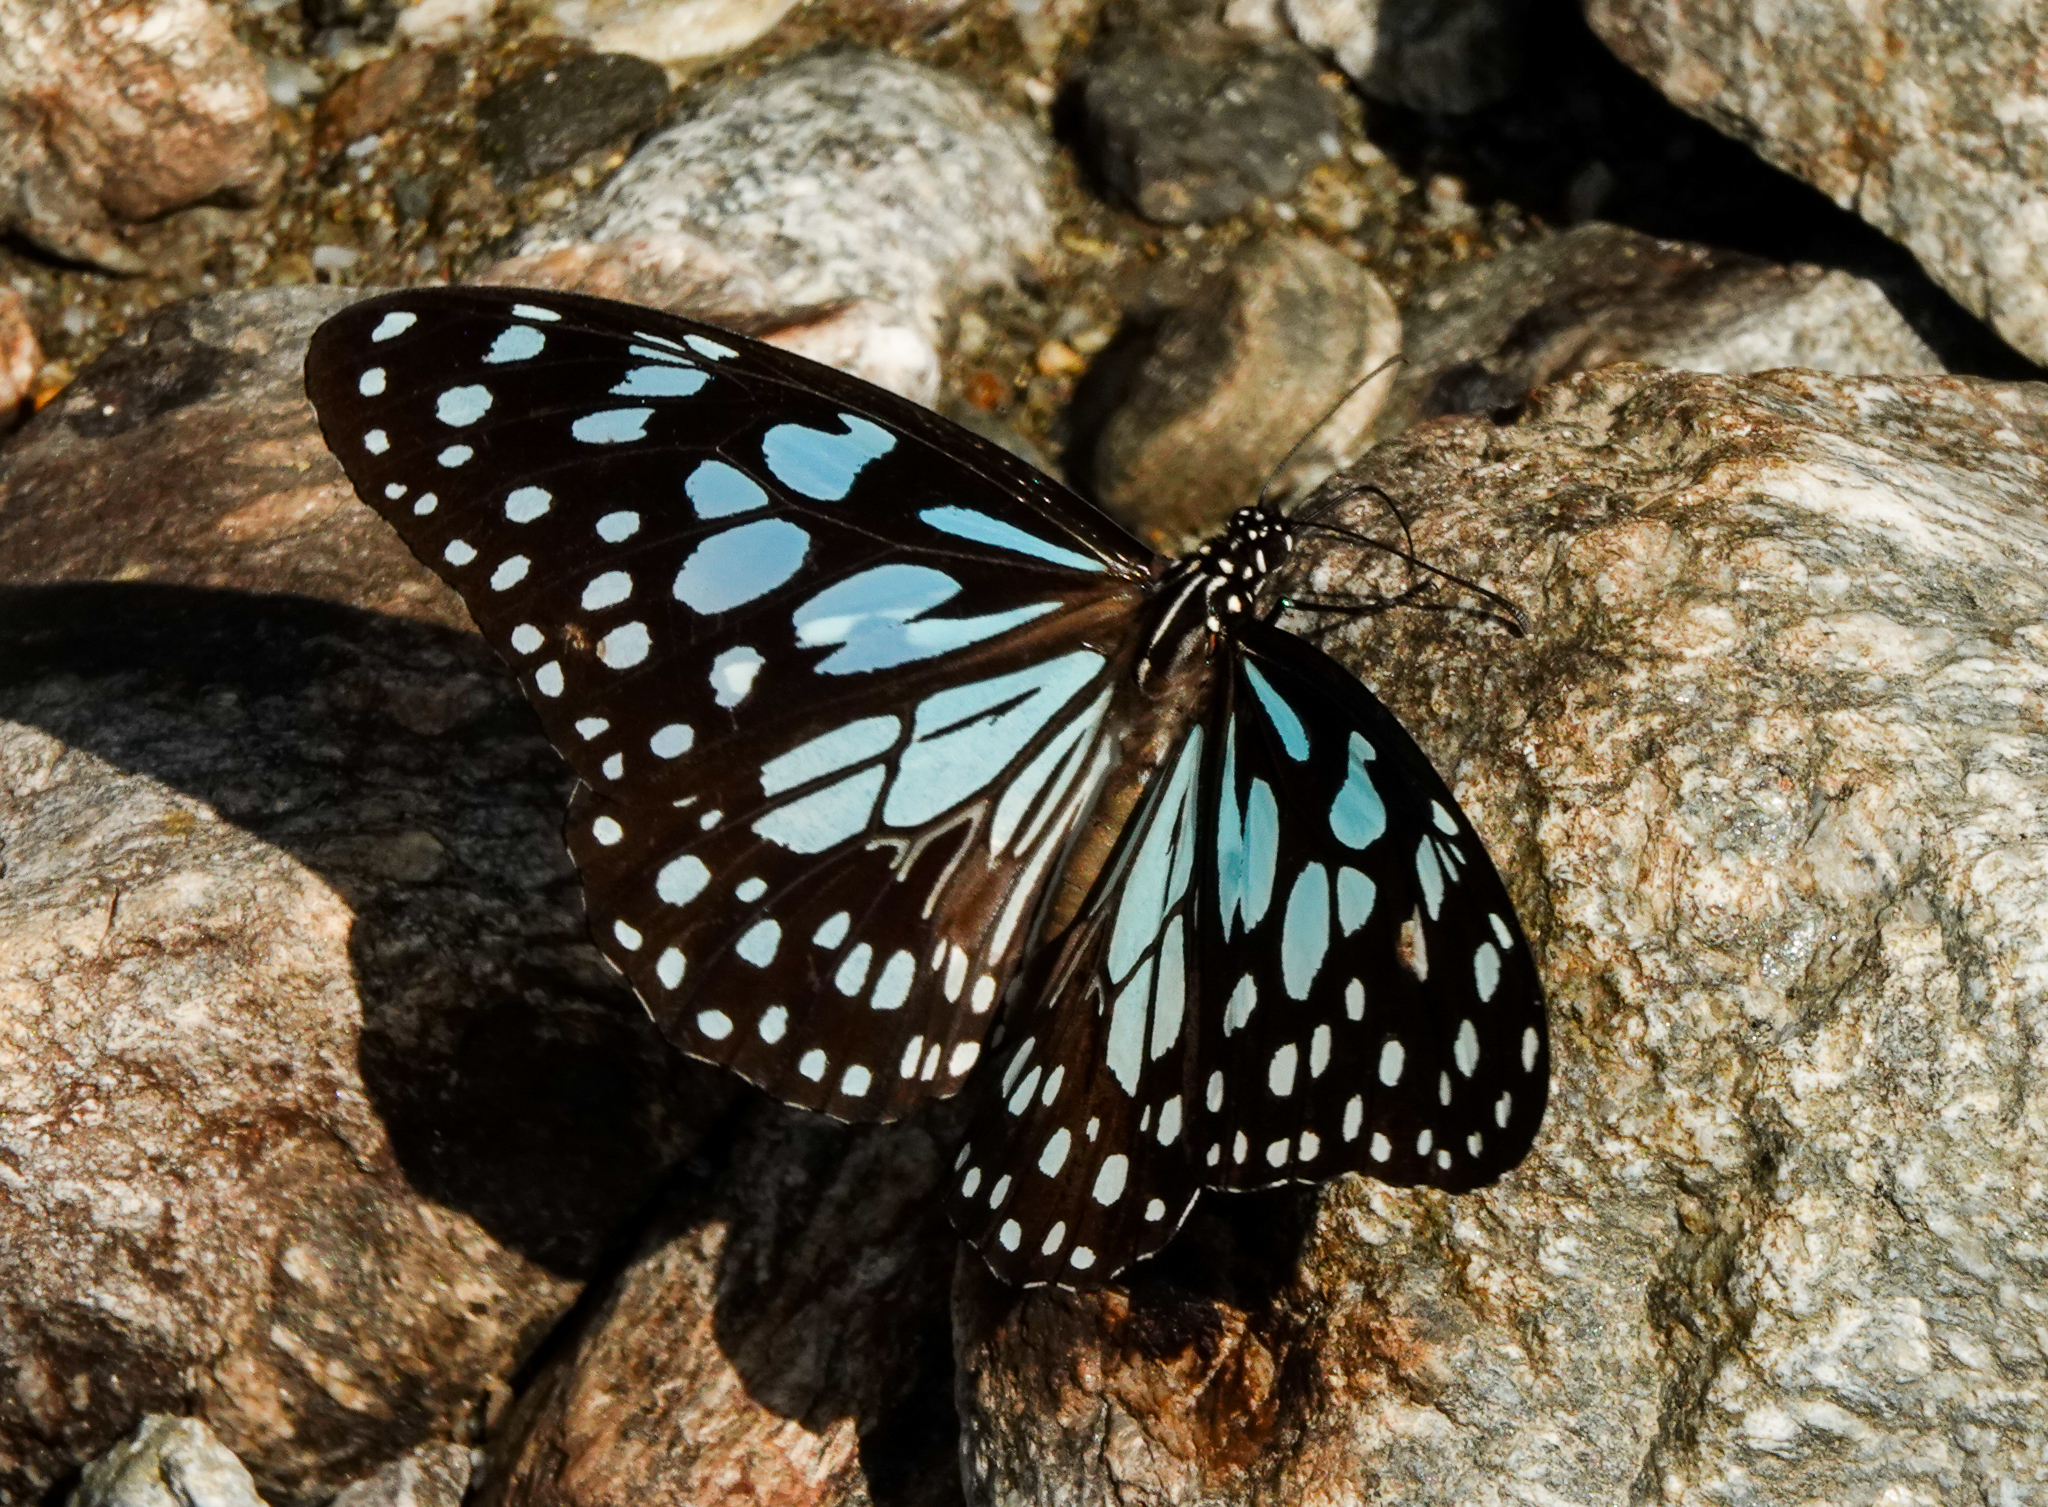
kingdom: Animalia
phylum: Arthropoda
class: Insecta
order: Lepidoptera
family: Nymphalidae
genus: Tirumala
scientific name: Tirumala limniace
